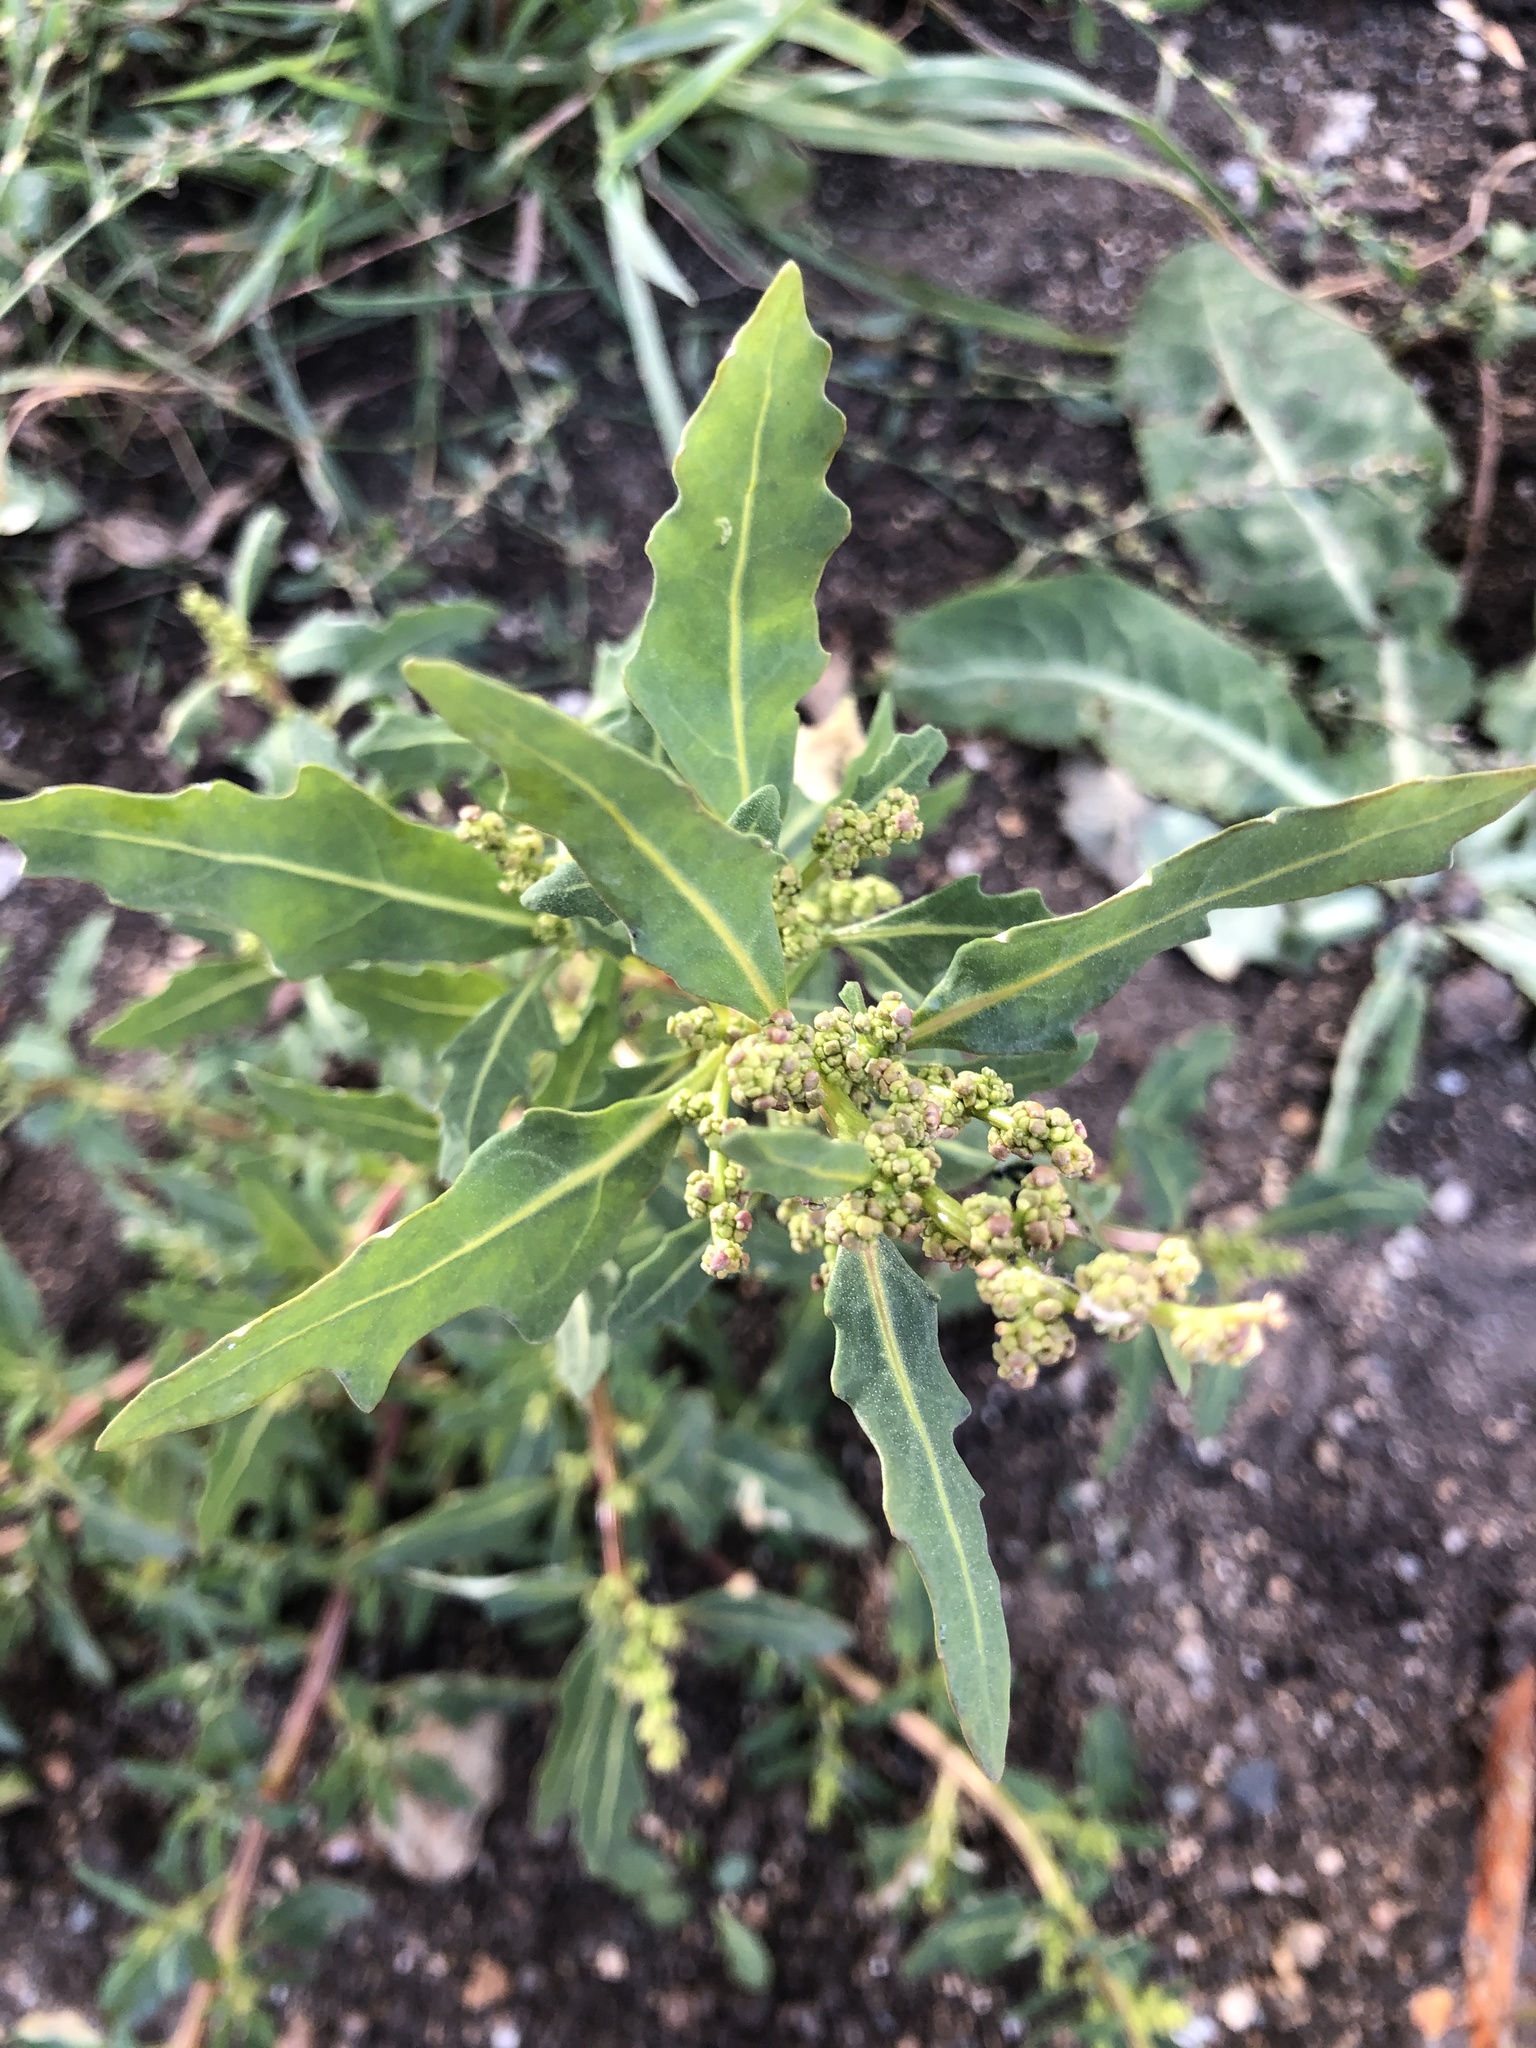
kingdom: Plantae
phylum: Tracheophyta
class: Magnoliopsida
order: Caryophyllales
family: Amaranthaceae
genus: Oxybasis
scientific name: Oxybasis glauca
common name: Glaucous goosefoot
